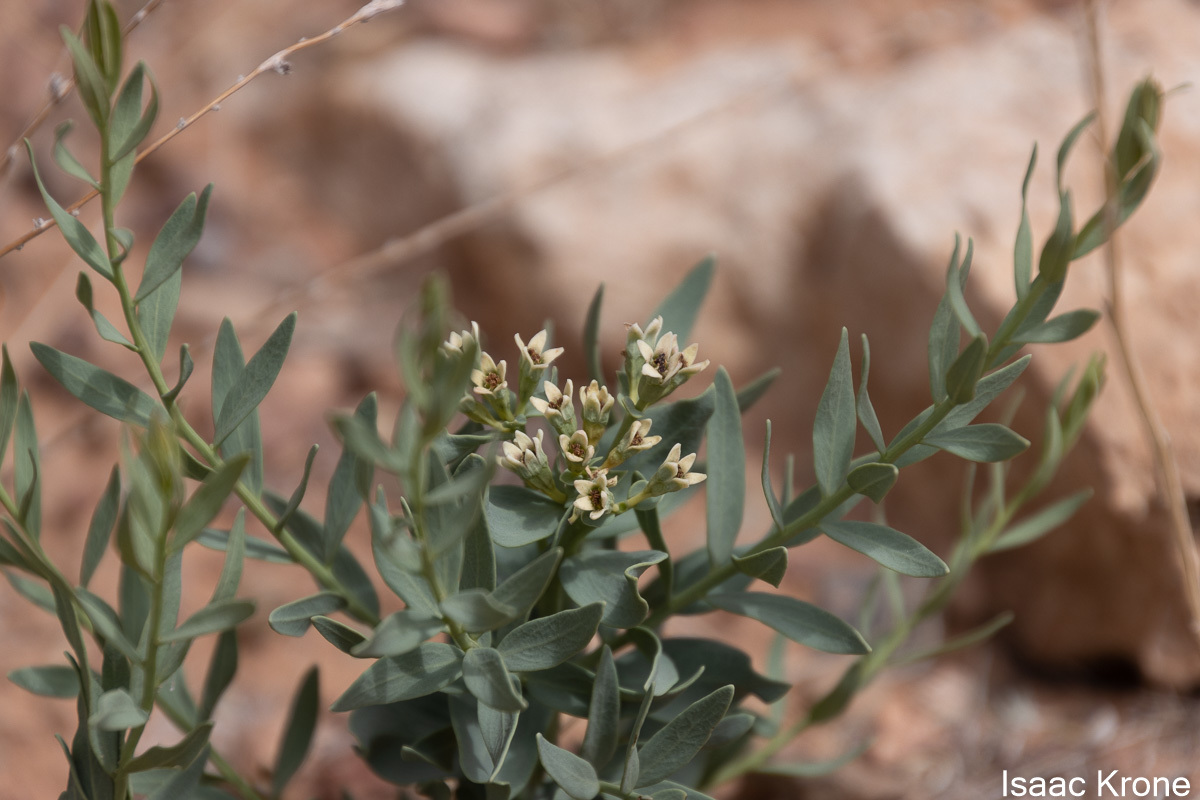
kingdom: Plantae
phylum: Tracheophyta
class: Magnoliopsida
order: Santalales
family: Comandraceae
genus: Comandra
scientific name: Comandra umbellata
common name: Bastard toadflax
